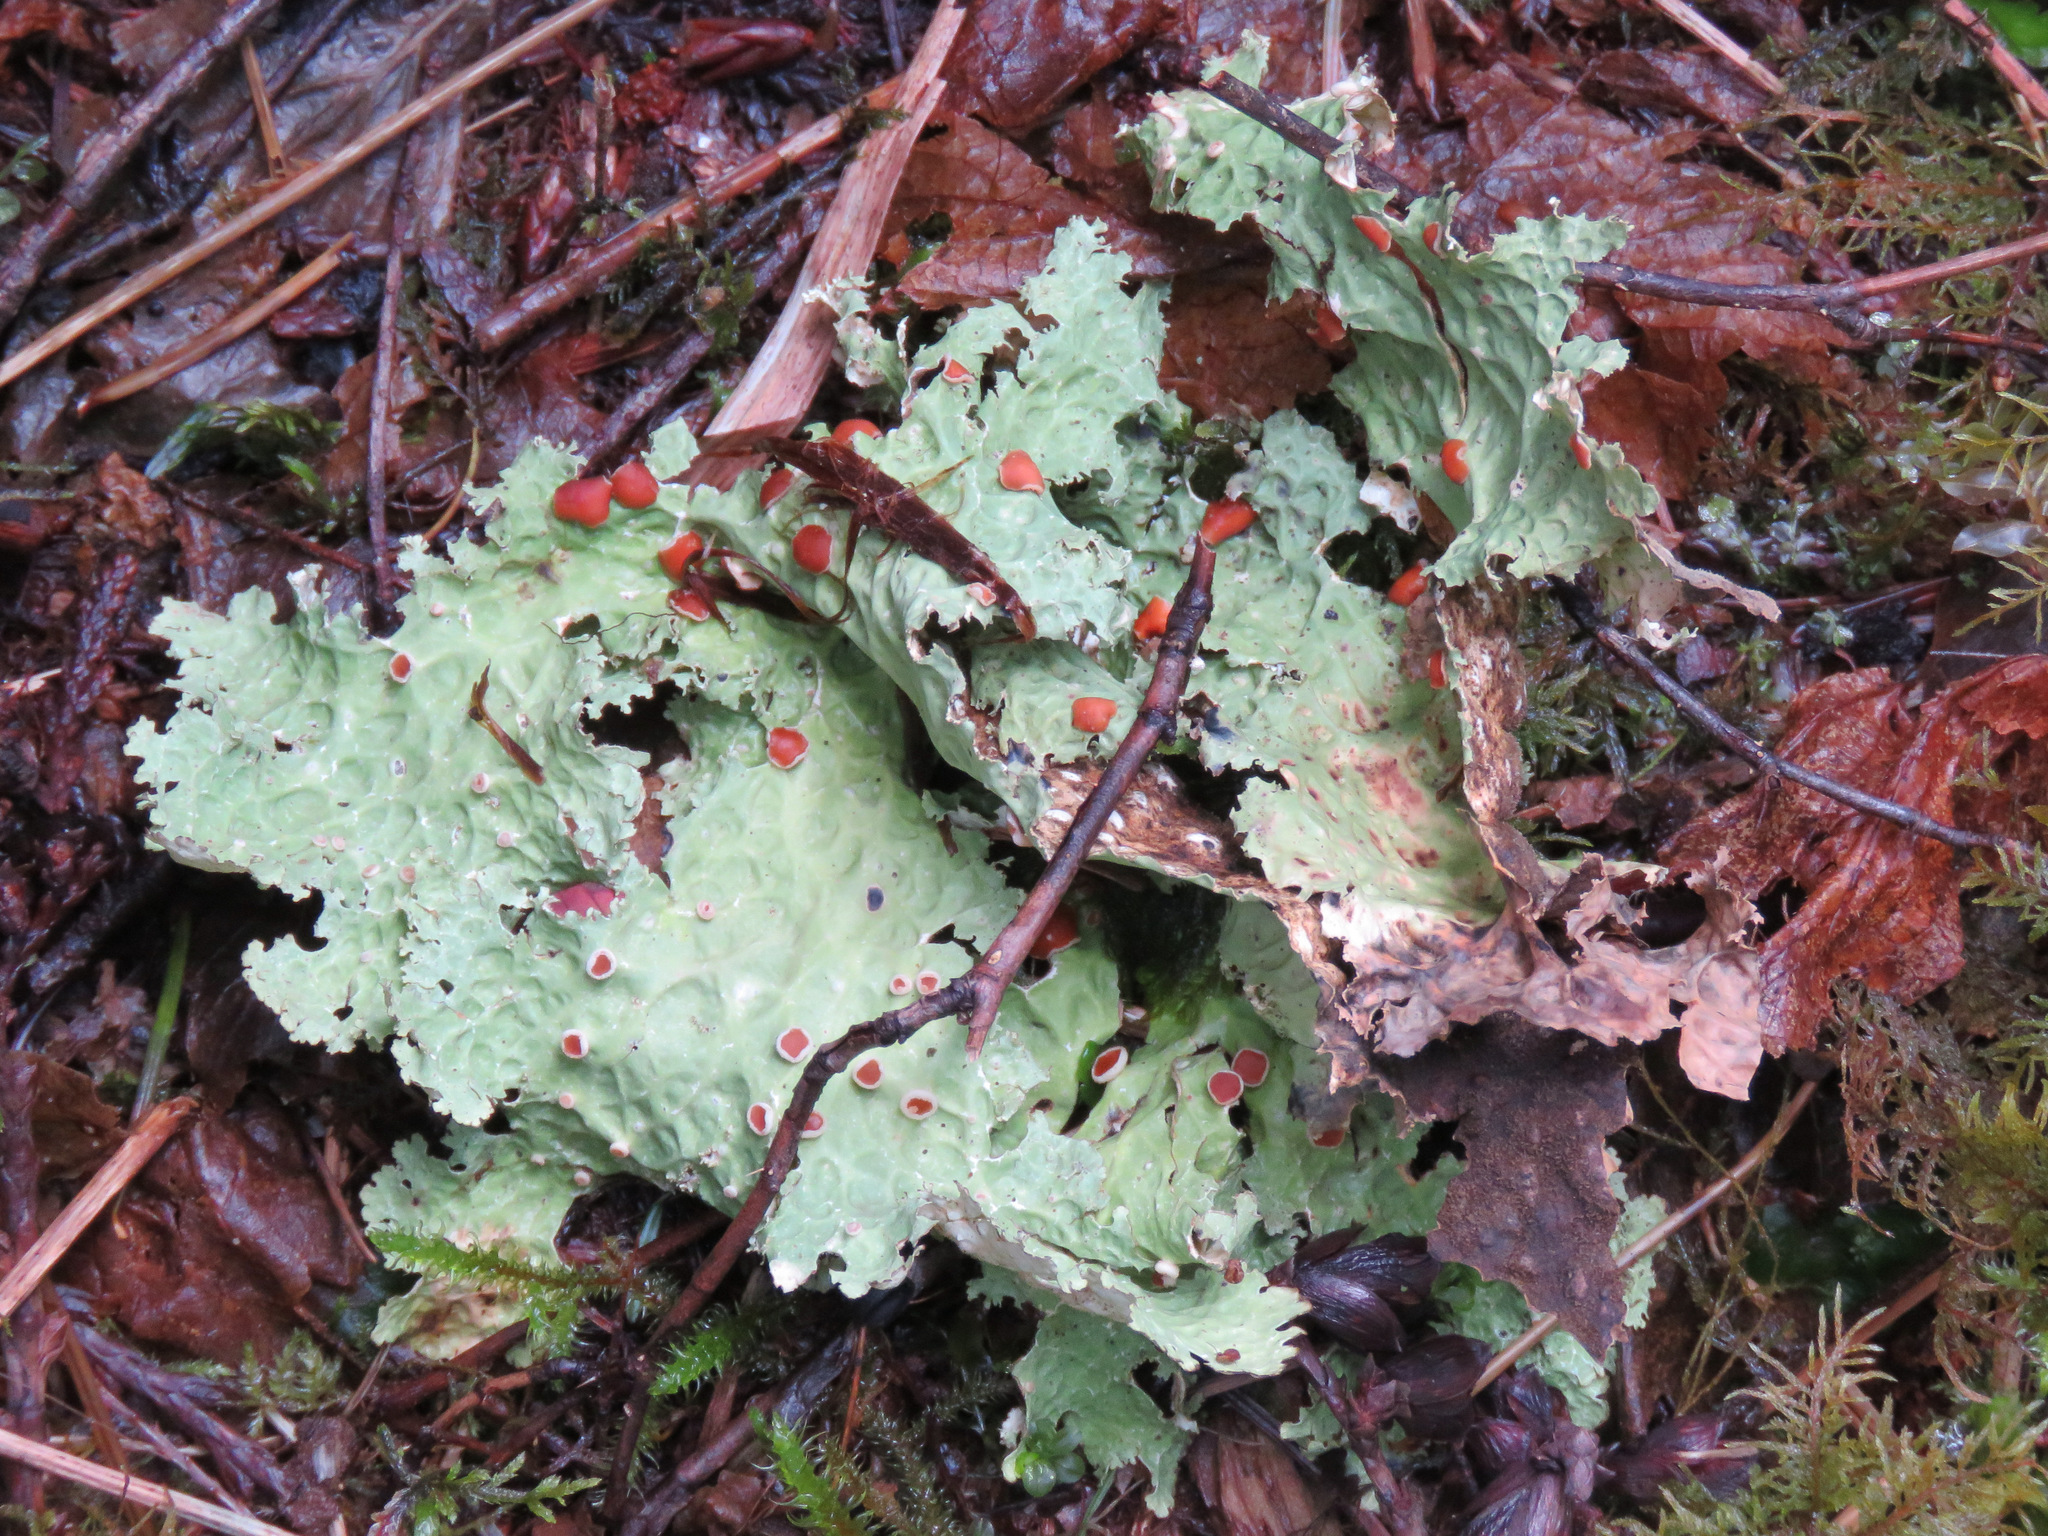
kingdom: Fungi
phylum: Ascomycota
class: Lecanoromycetes
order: Peltigerales
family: Lobariaceae
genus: Lobaria
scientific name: Lobaria oregana
